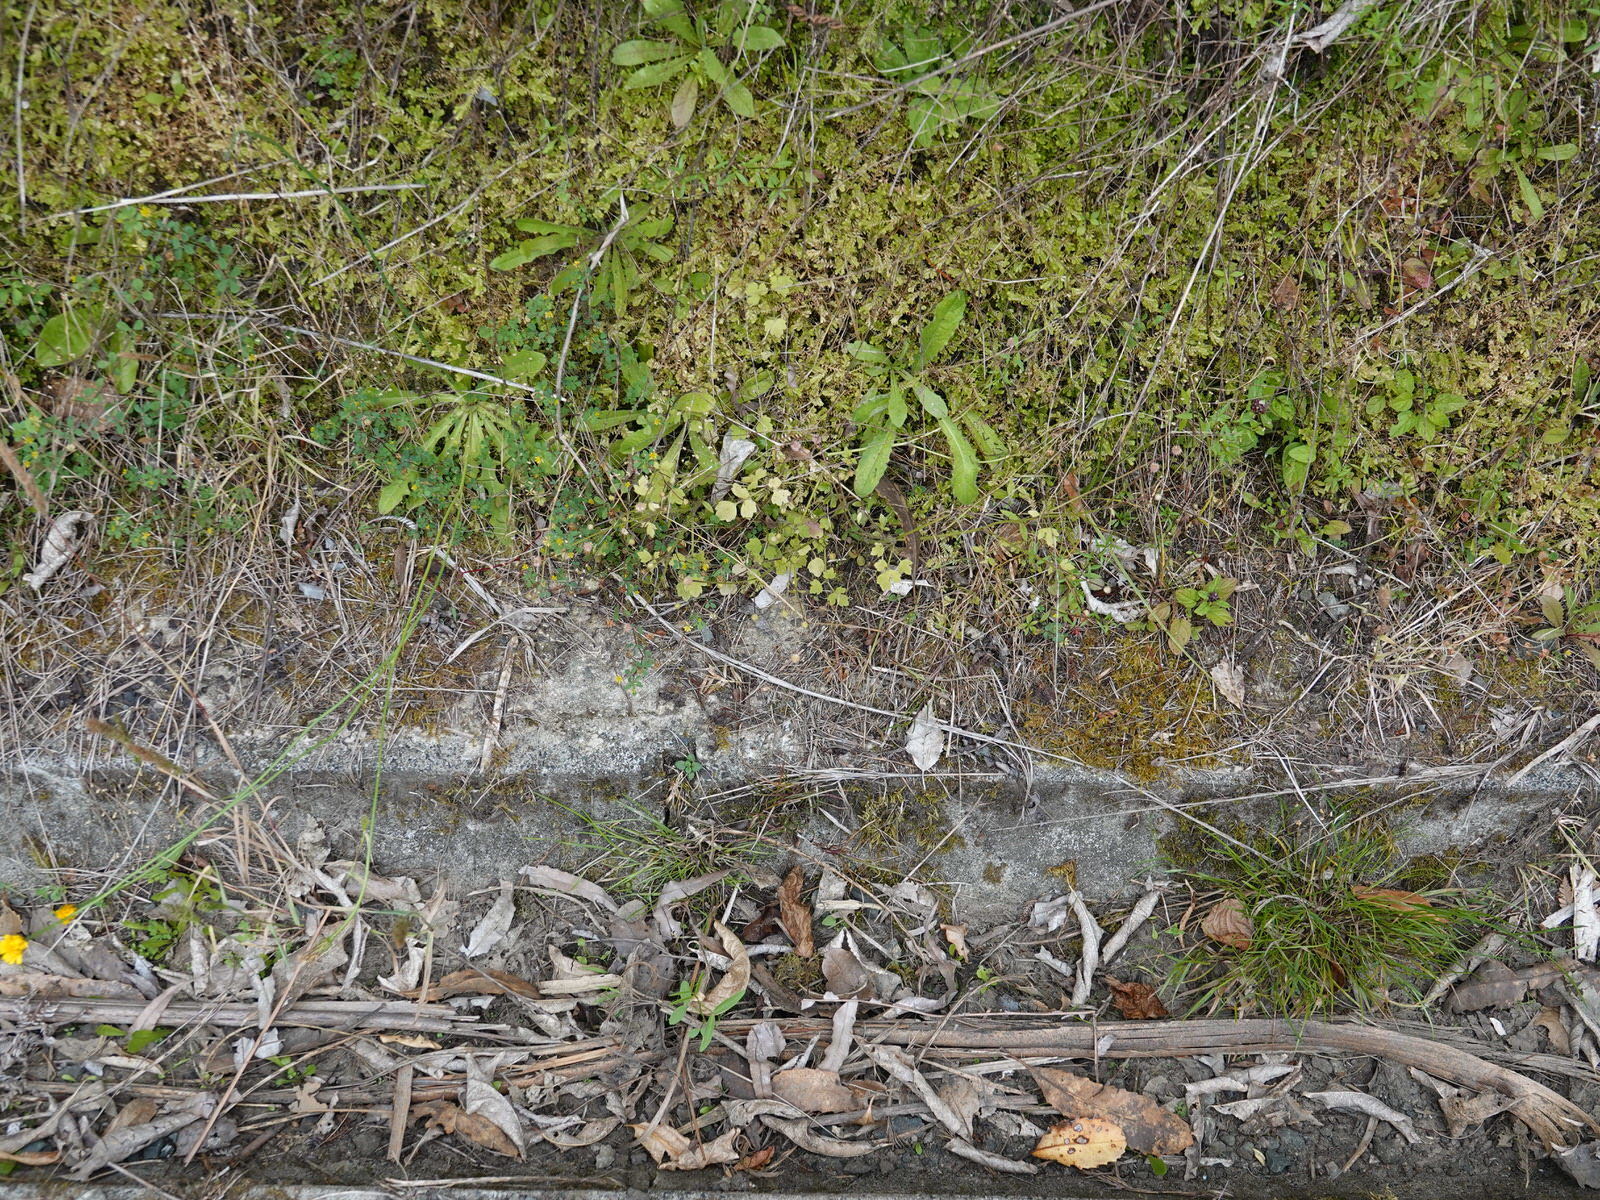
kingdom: Plantae
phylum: Tracheophyta
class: Magnoliopsida
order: Ranunculales
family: Ranunculaceae
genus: Ranunculus
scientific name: Ranunculus reflexus
